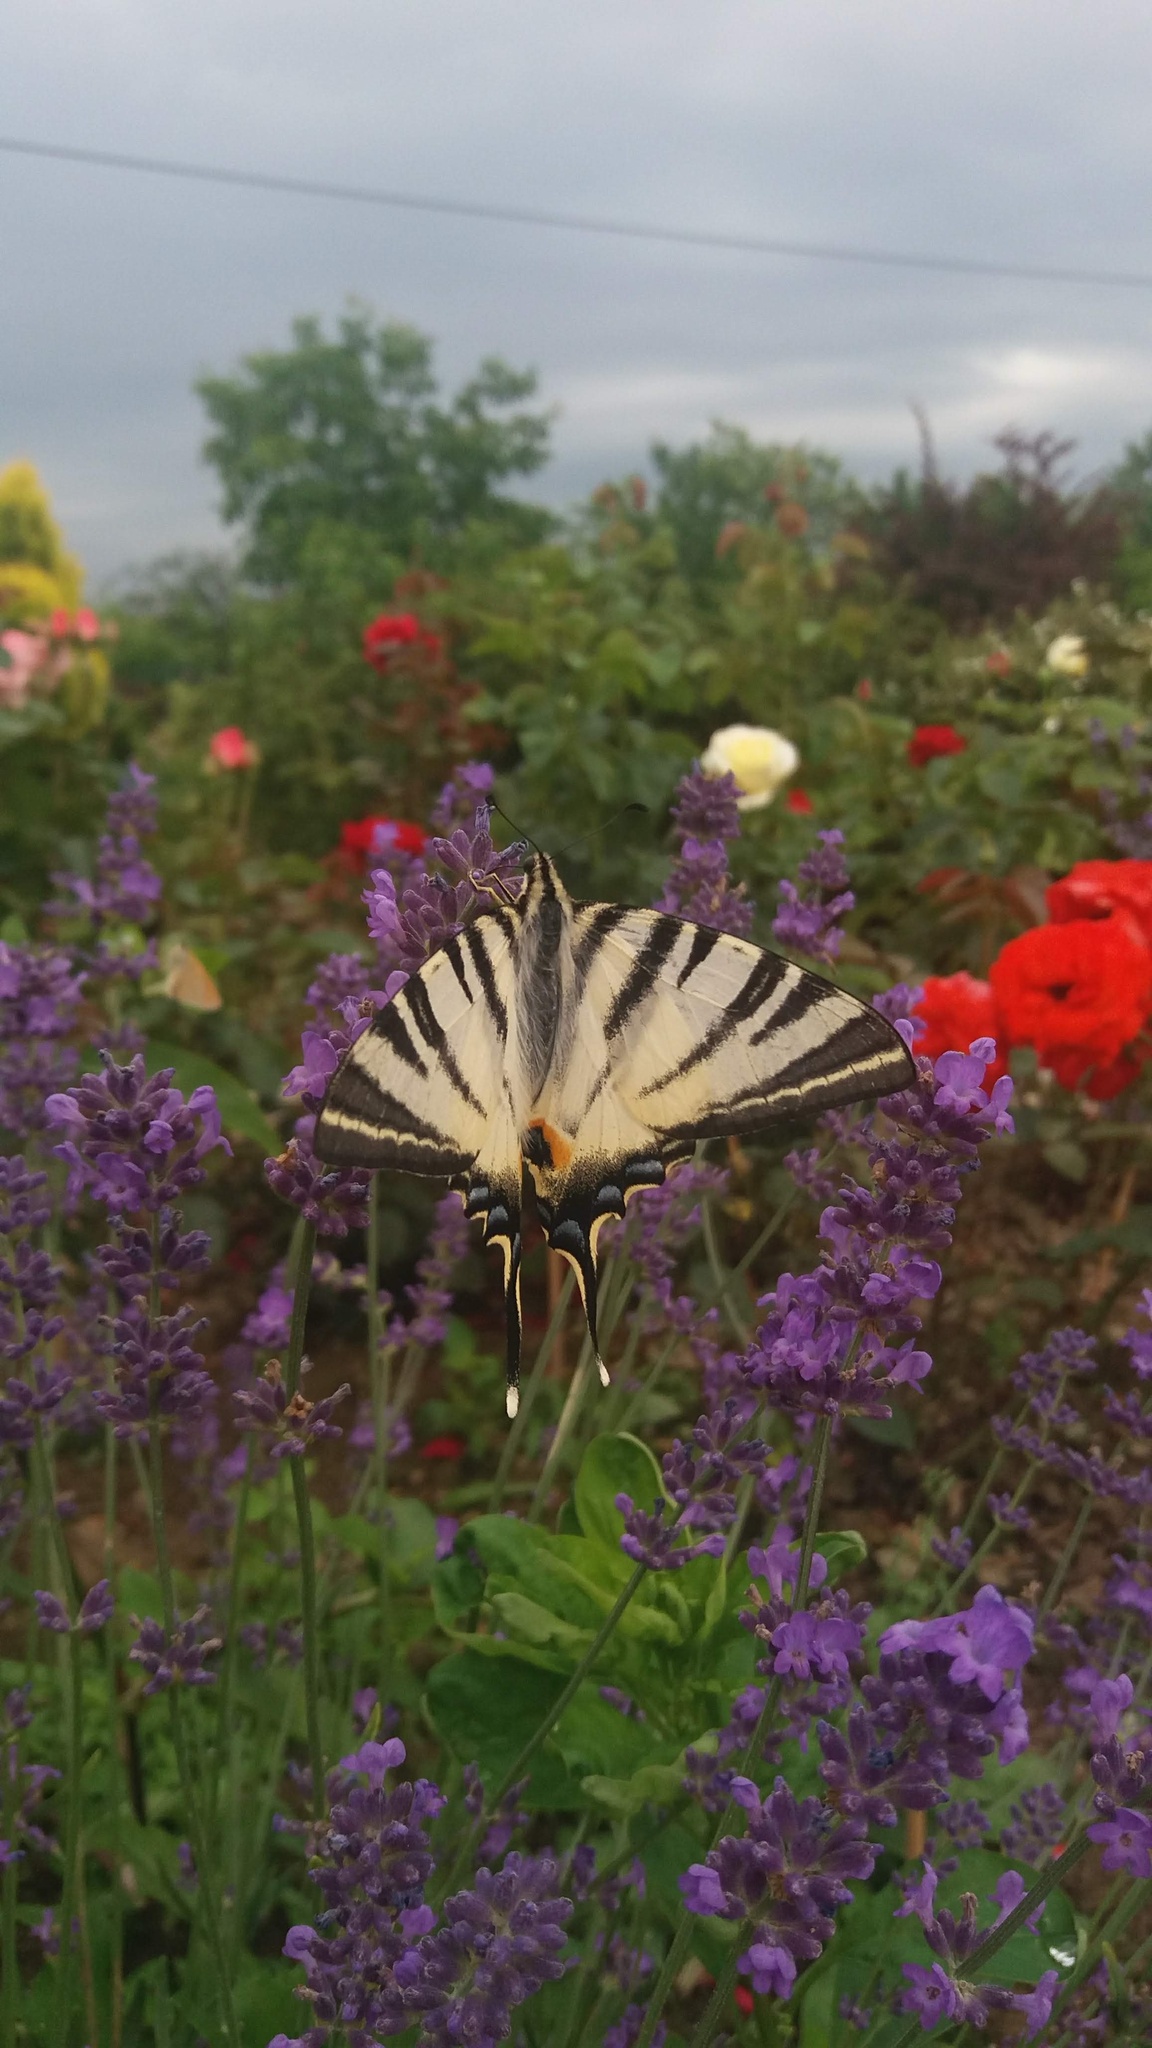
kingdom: Animalia
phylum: Arthropoda
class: Insecta
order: Lepidoptera
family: Papilionidae
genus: Iphiclides
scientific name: Iphiclides podalirius
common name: Scarce swallowtail
